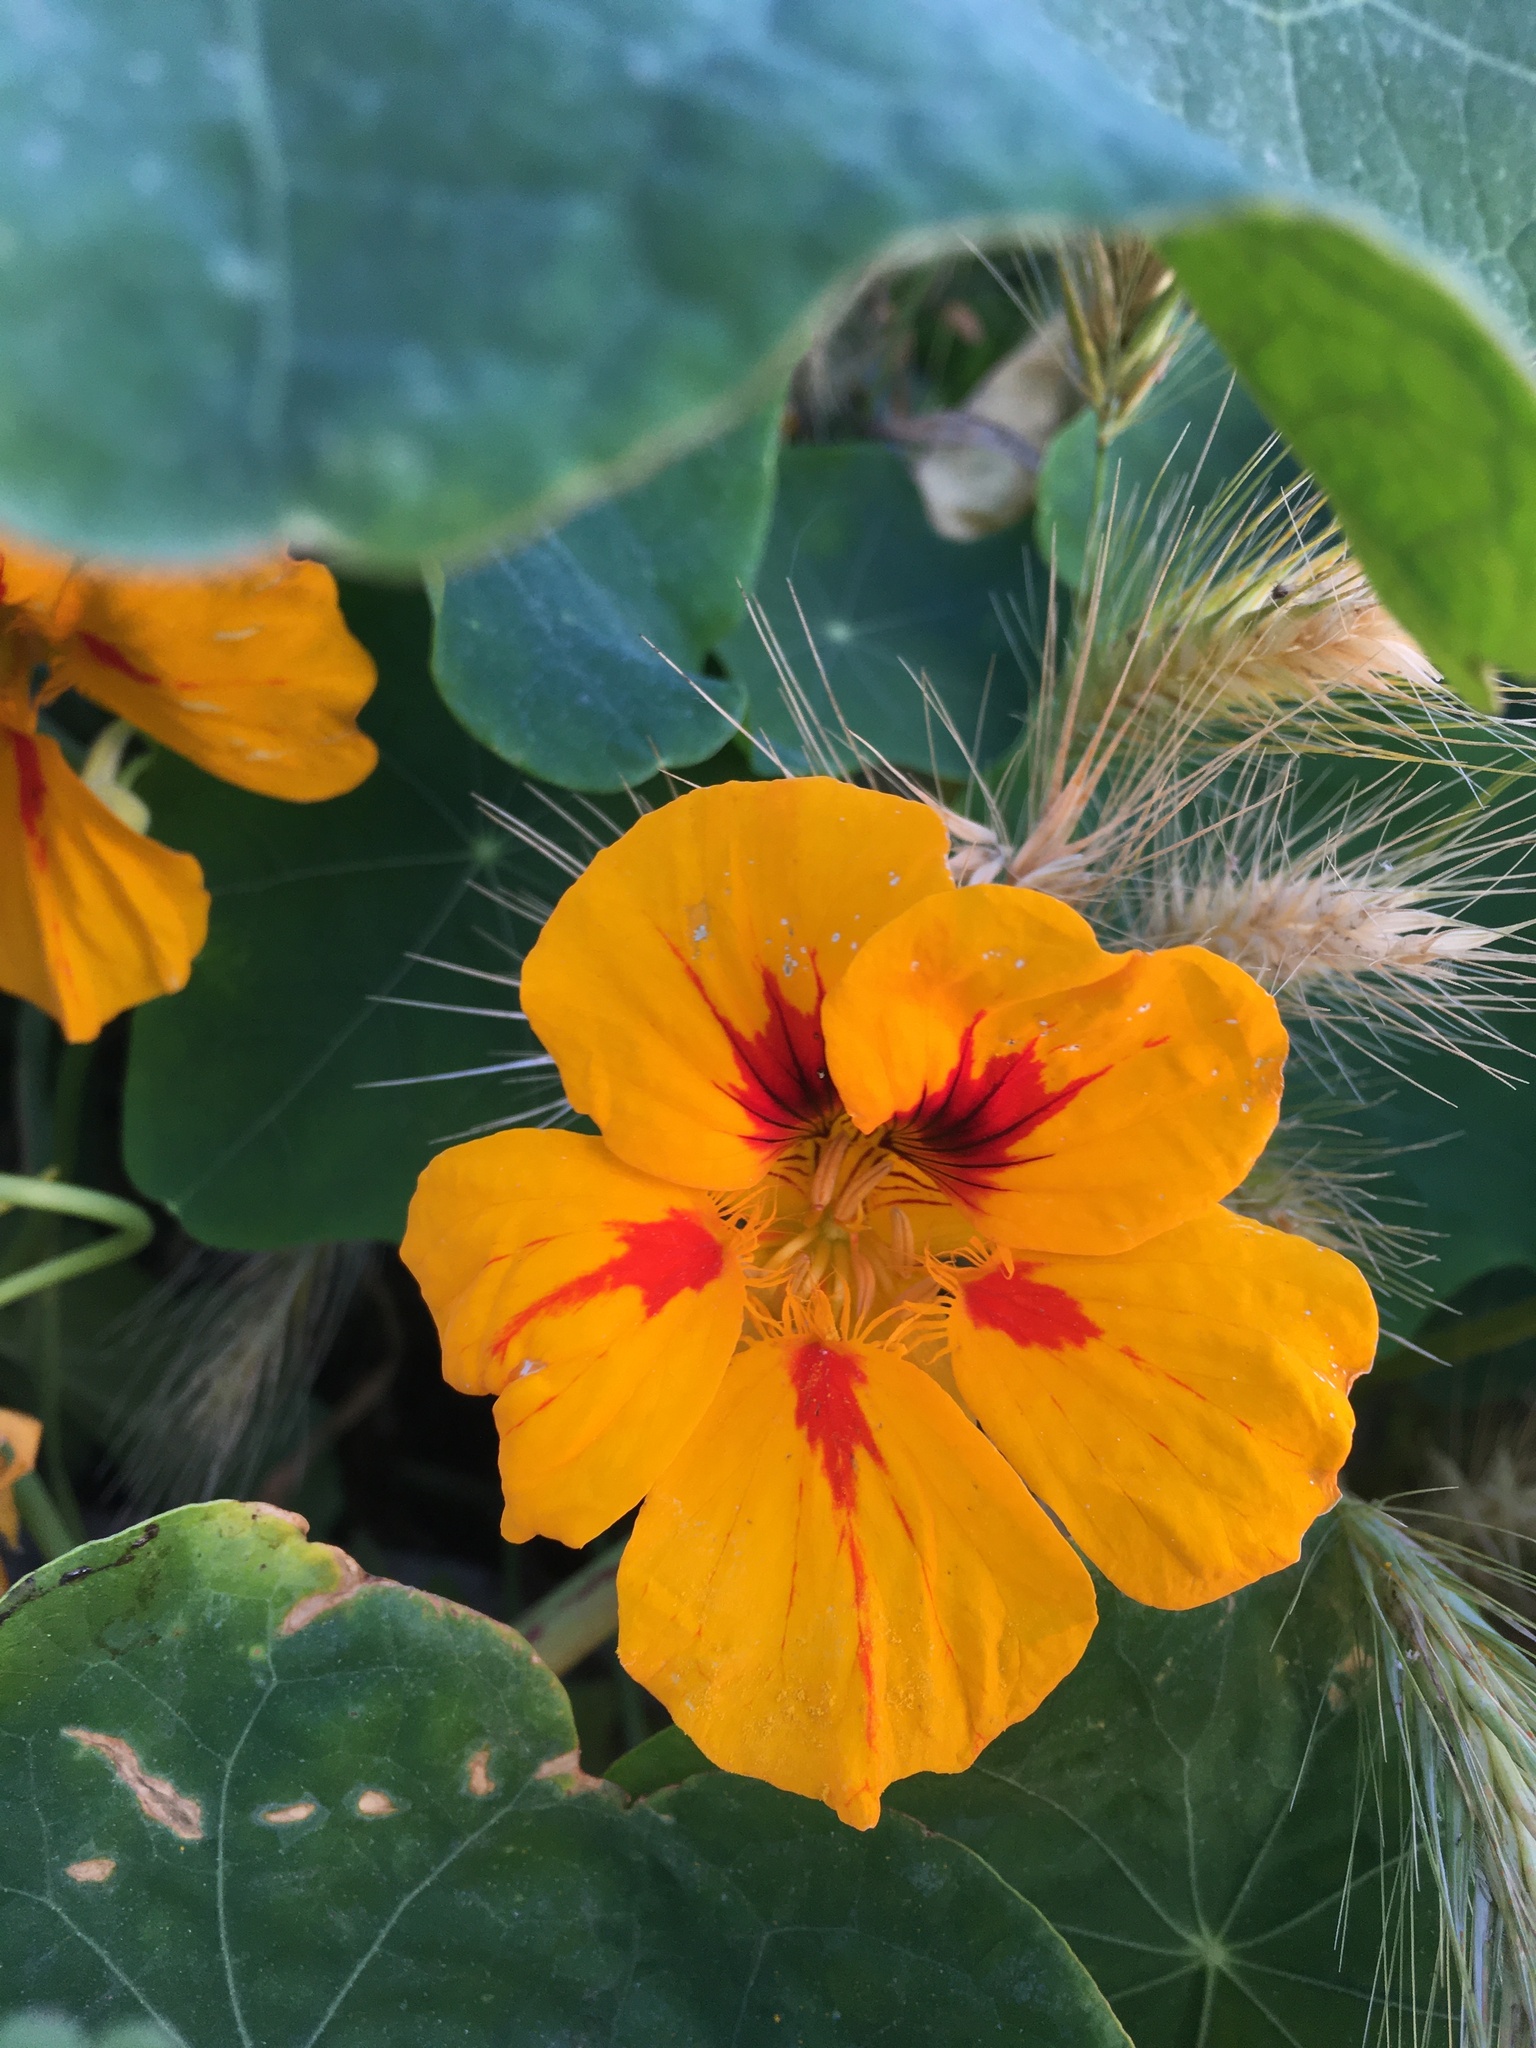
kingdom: Plantae
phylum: Tracheophyta
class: Magnoliopsida
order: Brassicales
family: Tropaeolaceae
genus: Tropaeolum
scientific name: Tropaeolum majus
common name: Nasturtium
